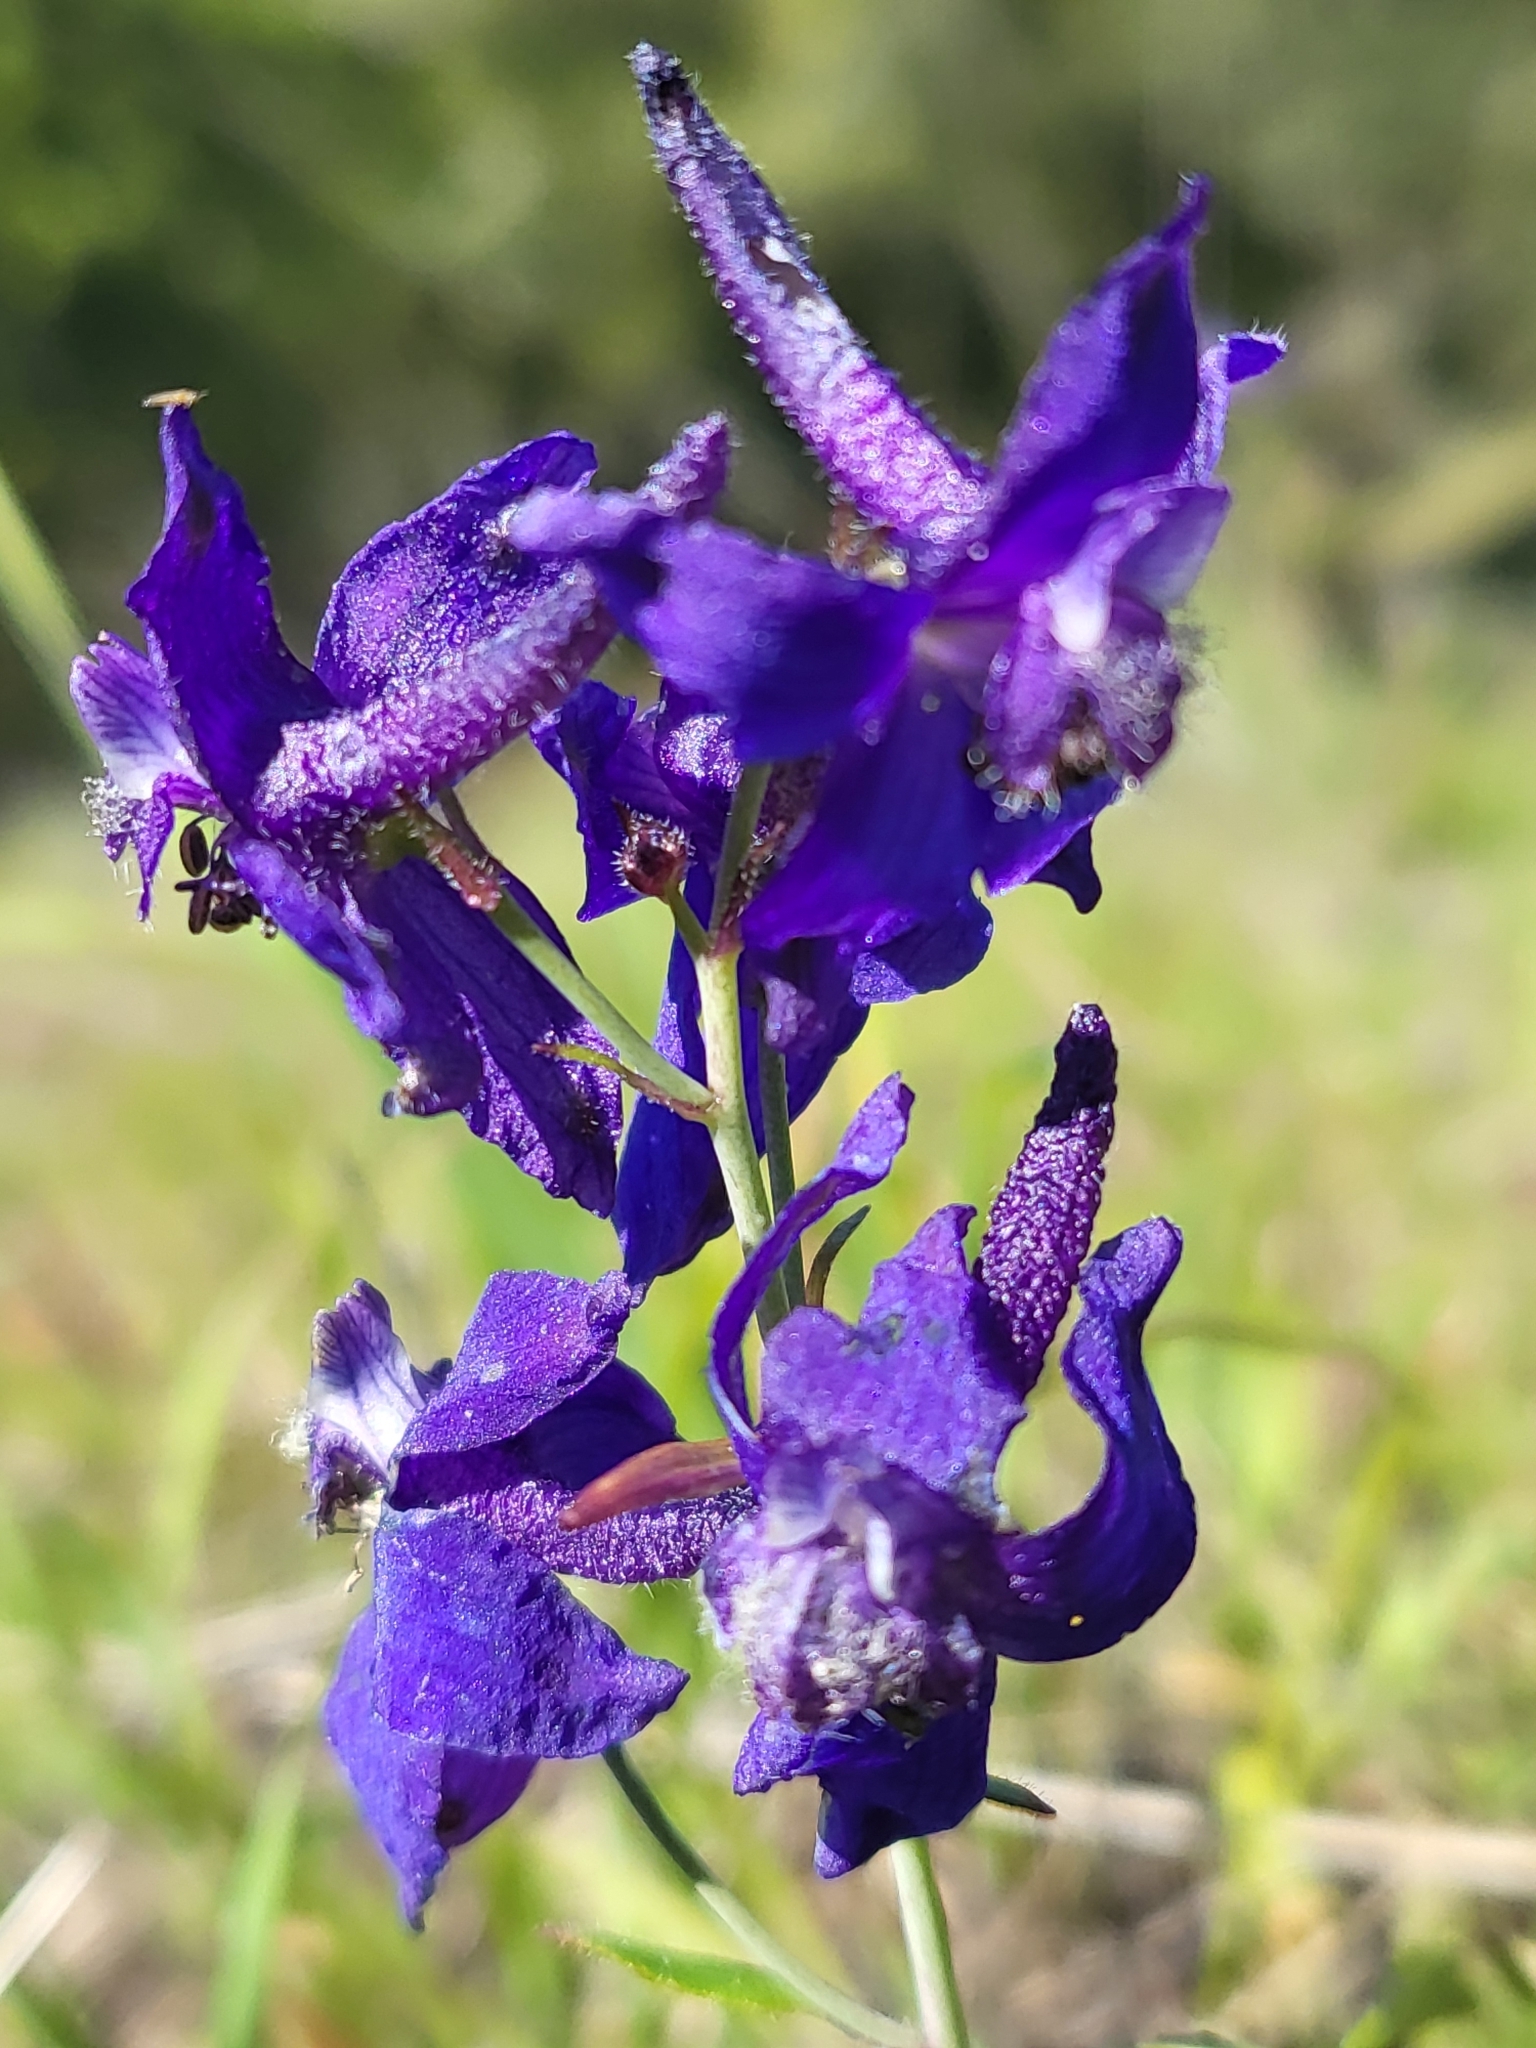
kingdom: Plantae
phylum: Tracheophyta
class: Magnoliopsida
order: Ranunculales
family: Ranunculaceae
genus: Delphinium
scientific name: Delphinium patens
